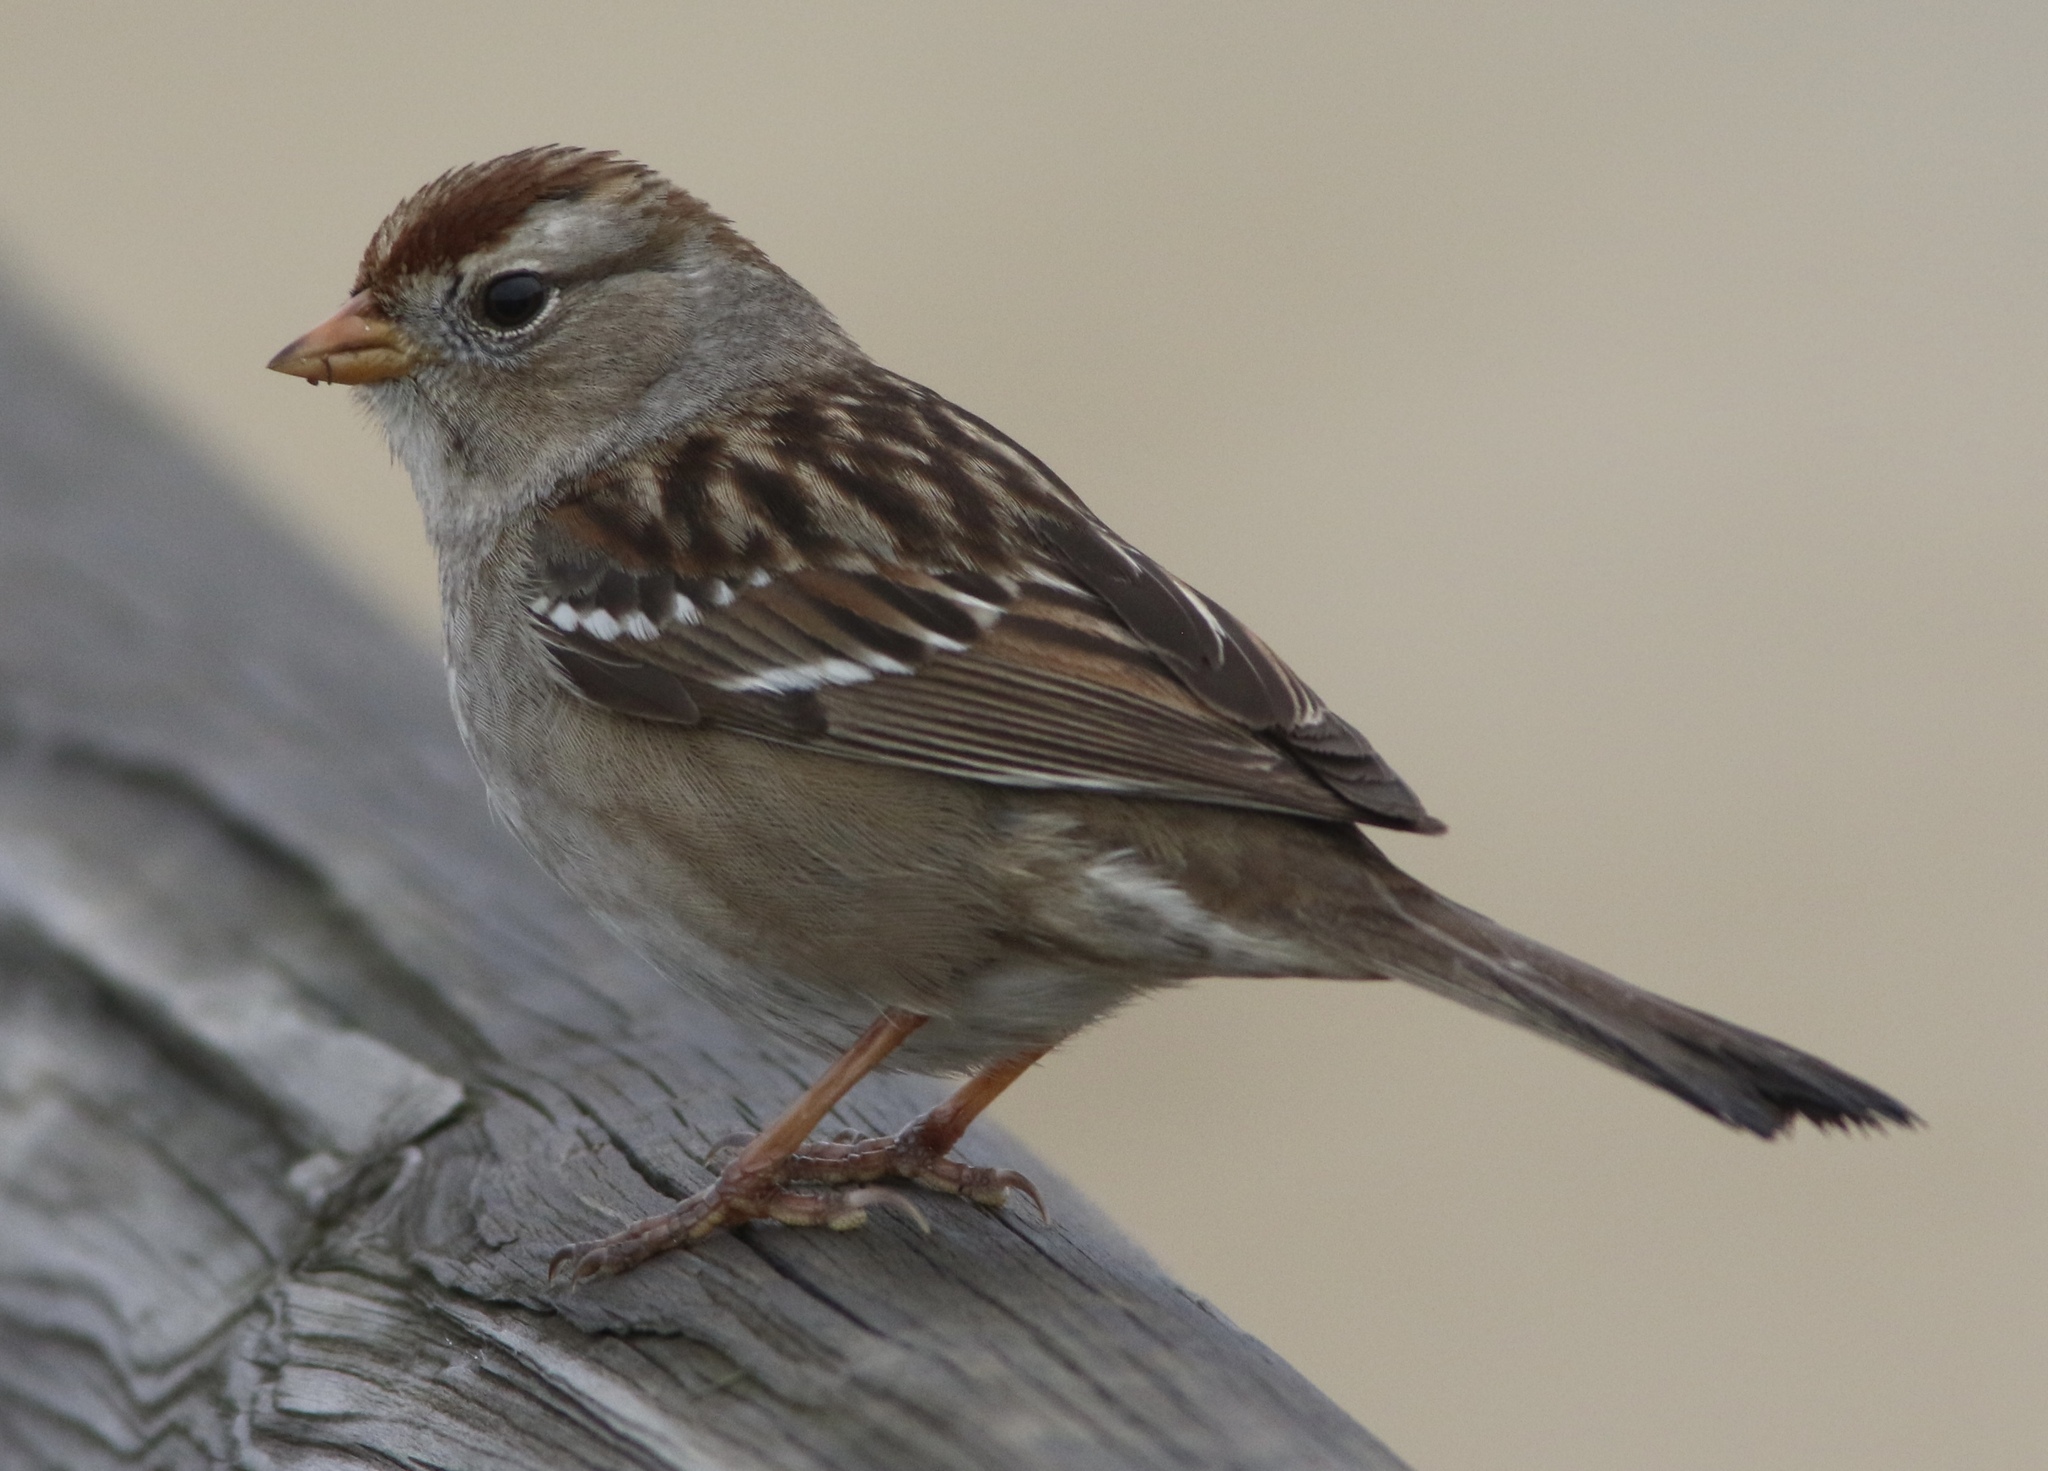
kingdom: Animalia
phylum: Chordata
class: Aves
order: Passeriformes
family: Passerellidae
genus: Zonotrichia
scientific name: Zonotrichia leucophrys
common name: White-crowned sparrow
